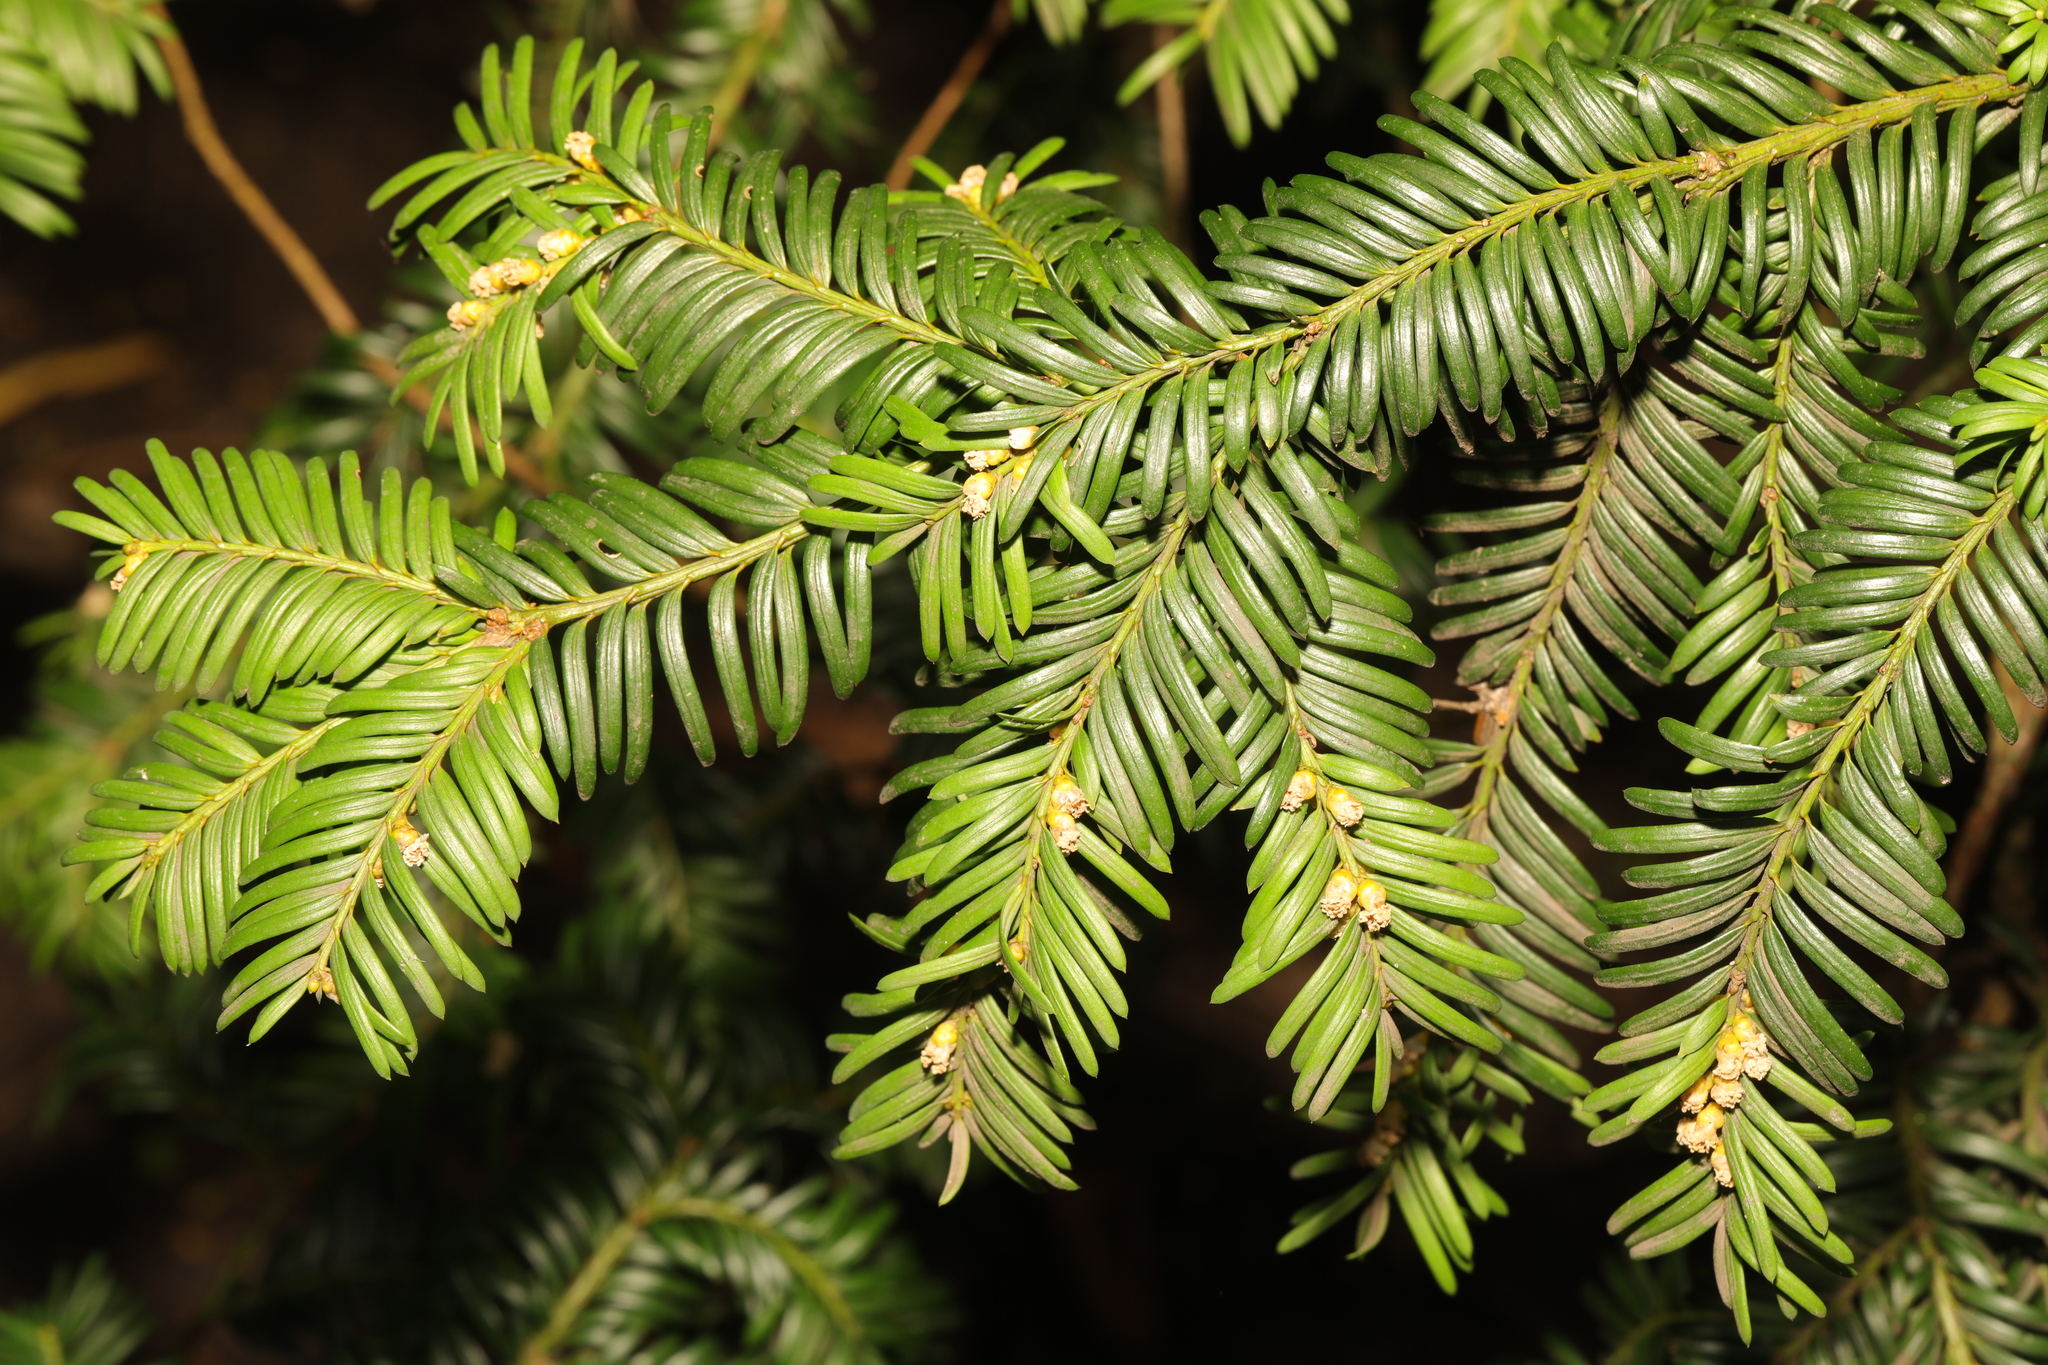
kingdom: Plantae
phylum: Tracheophyta
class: Pinopsida
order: Pinales
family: Taxaceae
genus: Taxus
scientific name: Taxus baccata
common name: Yew
